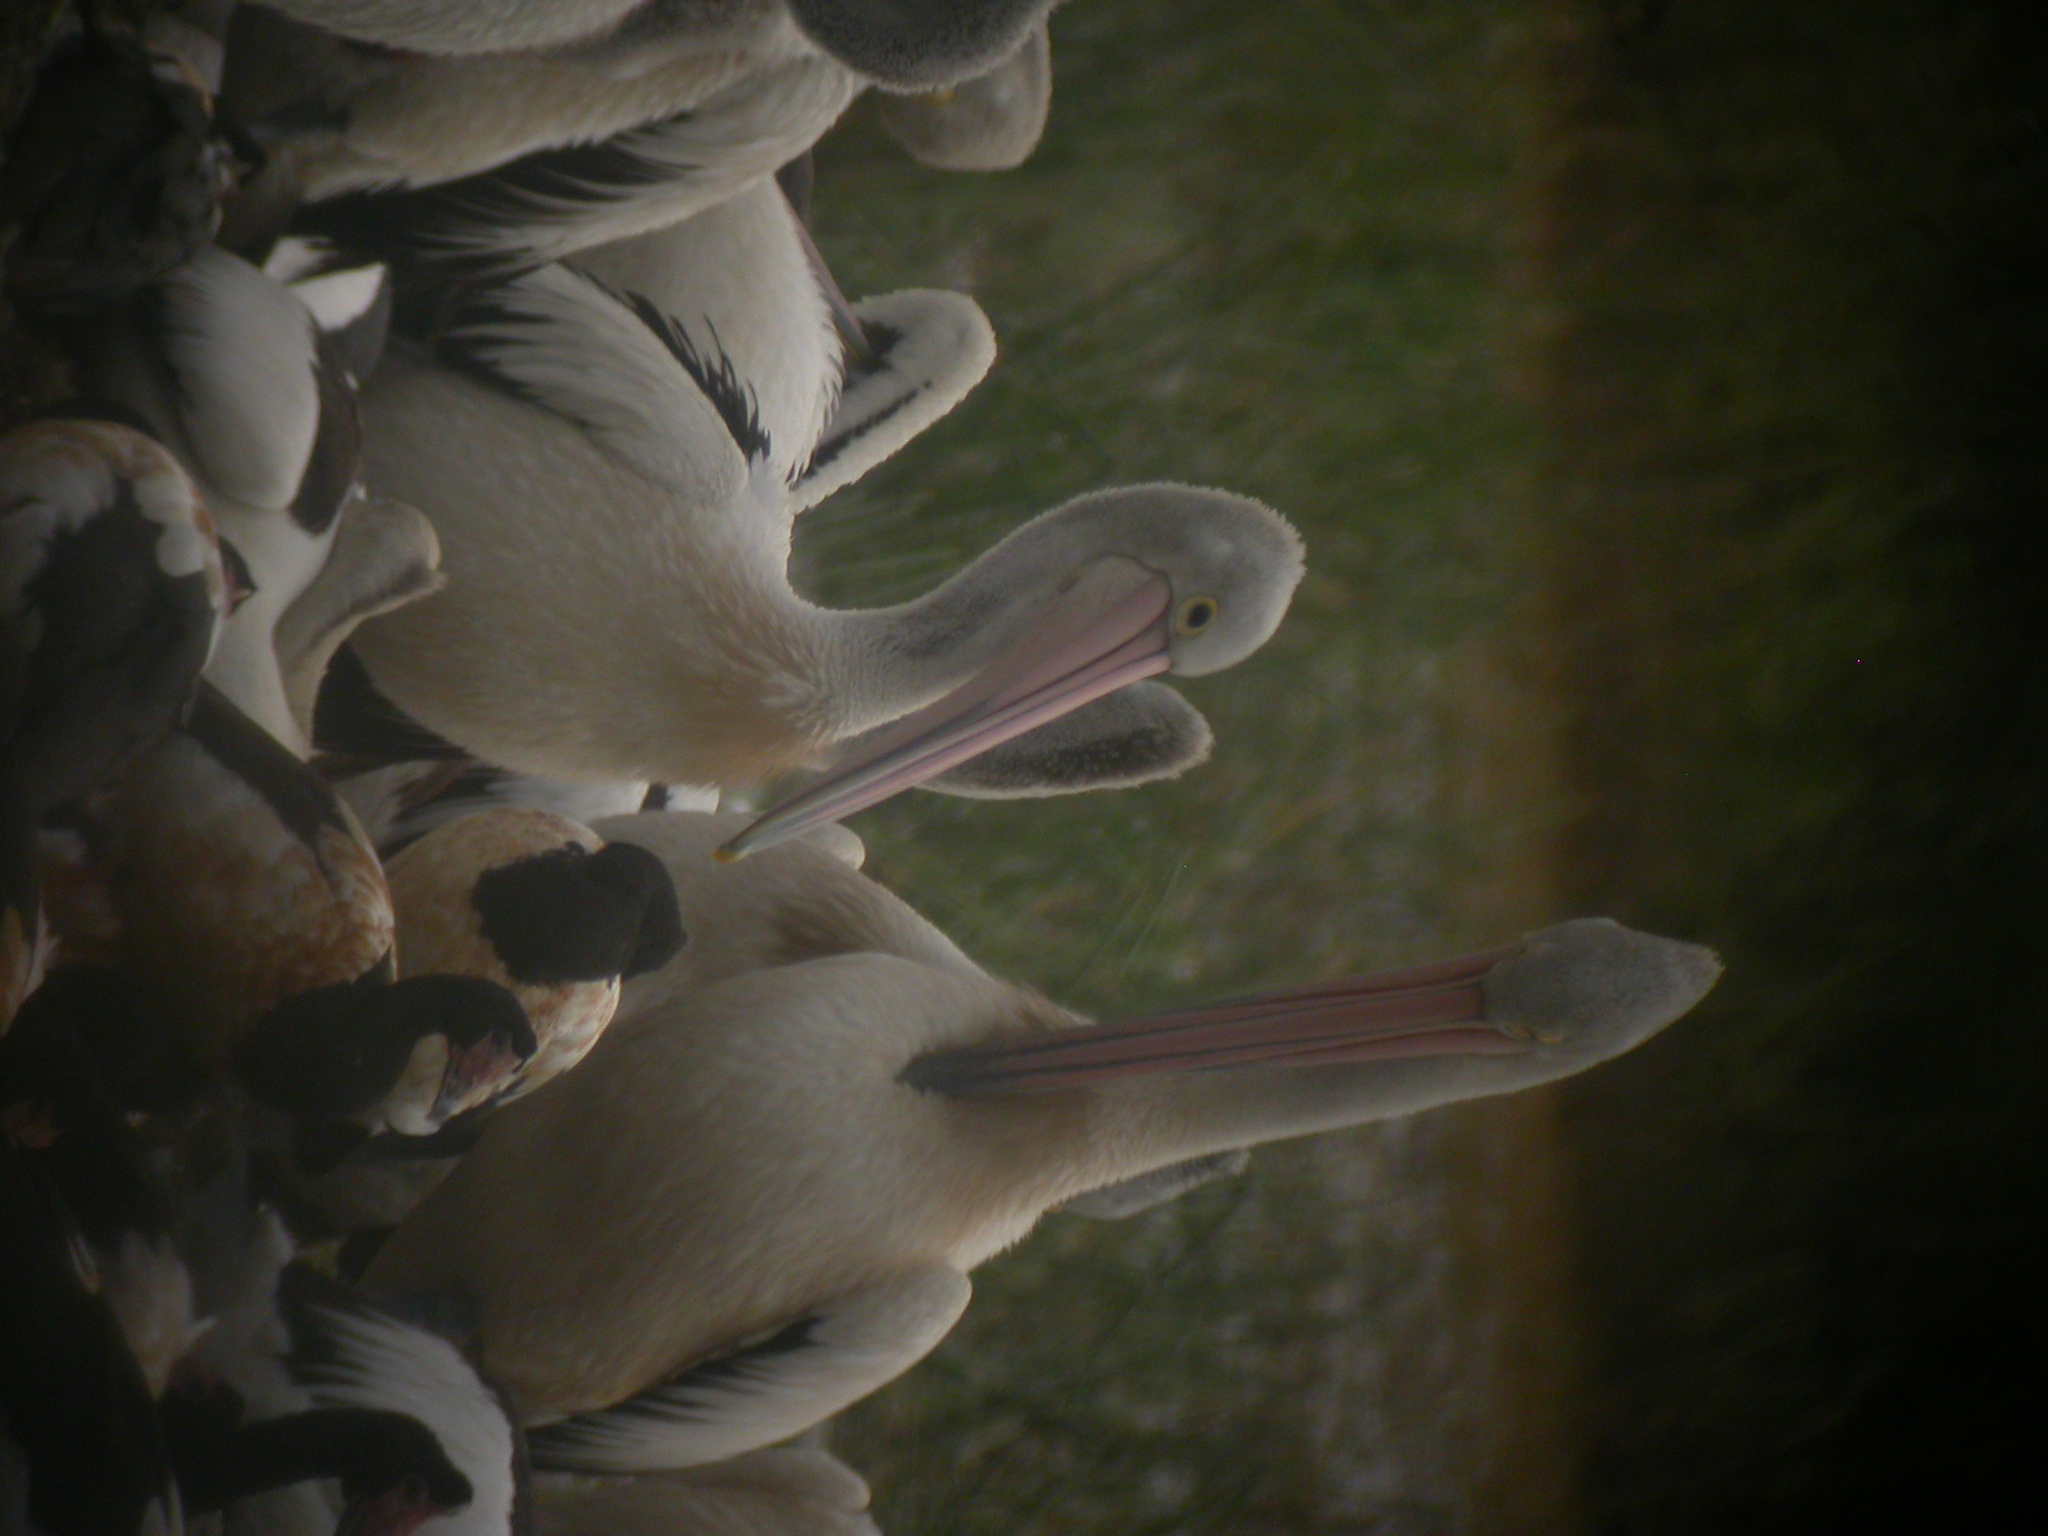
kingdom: Animalia
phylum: Chordata
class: Aves
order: Pelecaniformes
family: Pelecanidae
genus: Pelecanus
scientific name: Pelecanus conspicillatus
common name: Australian pelican
